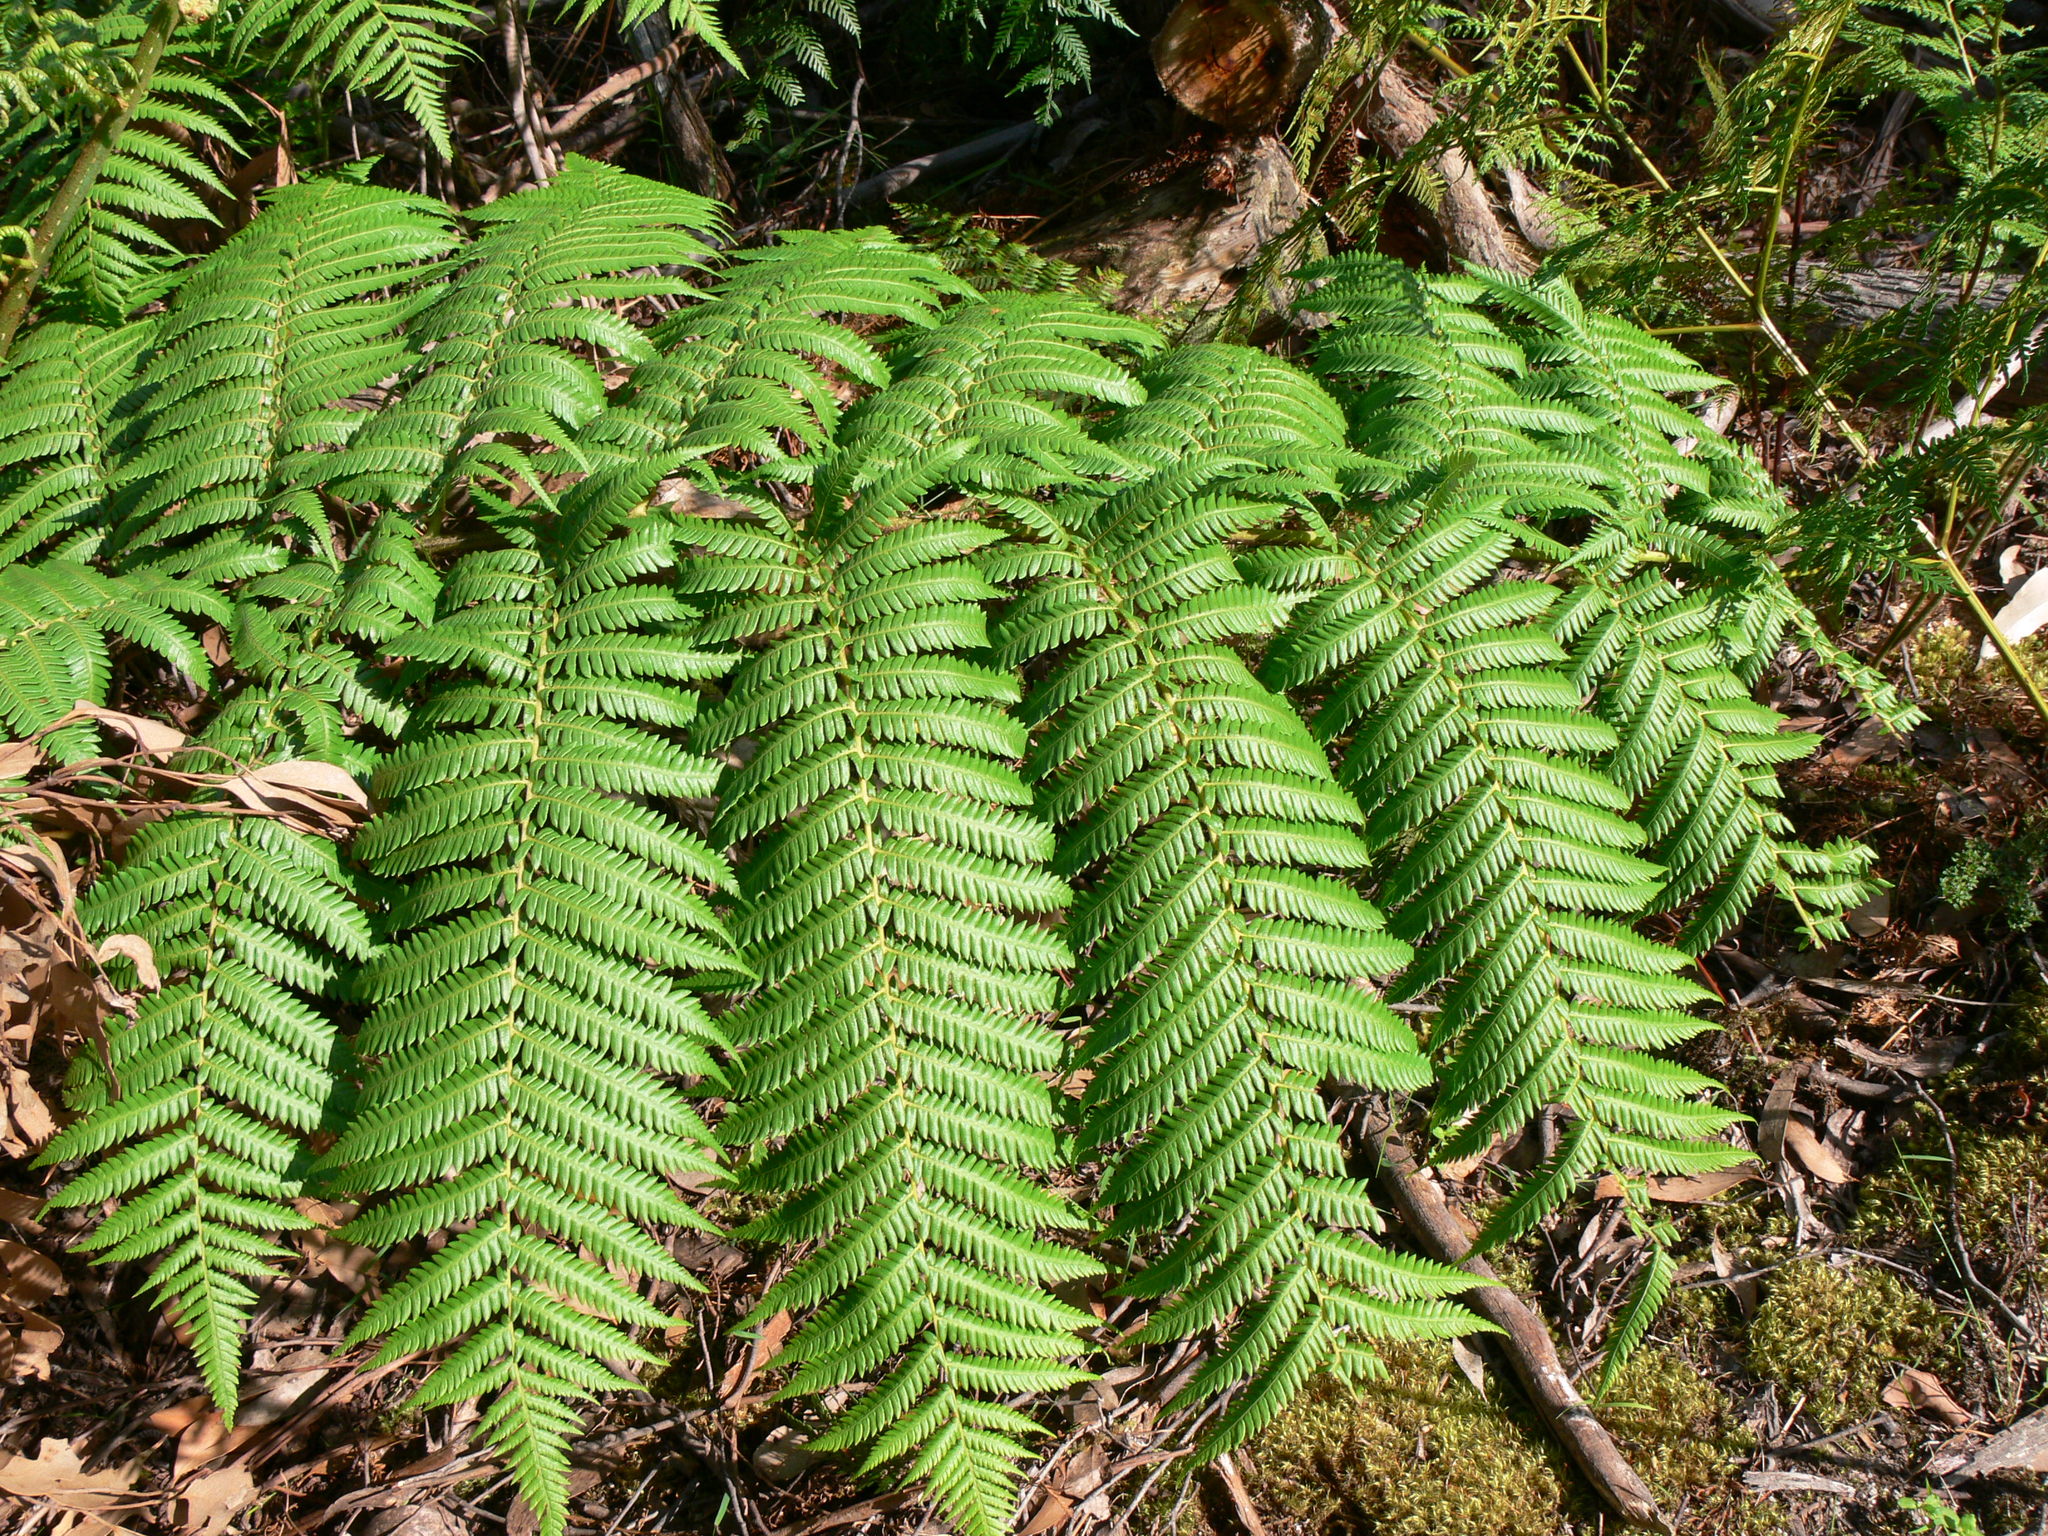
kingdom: Plantae
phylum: Tracheophyta
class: Polypodiopsida
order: Cyatheales
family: Dicksoniaceae
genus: Dicksonia
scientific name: Dicksonia antarctica
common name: Australian treefern
